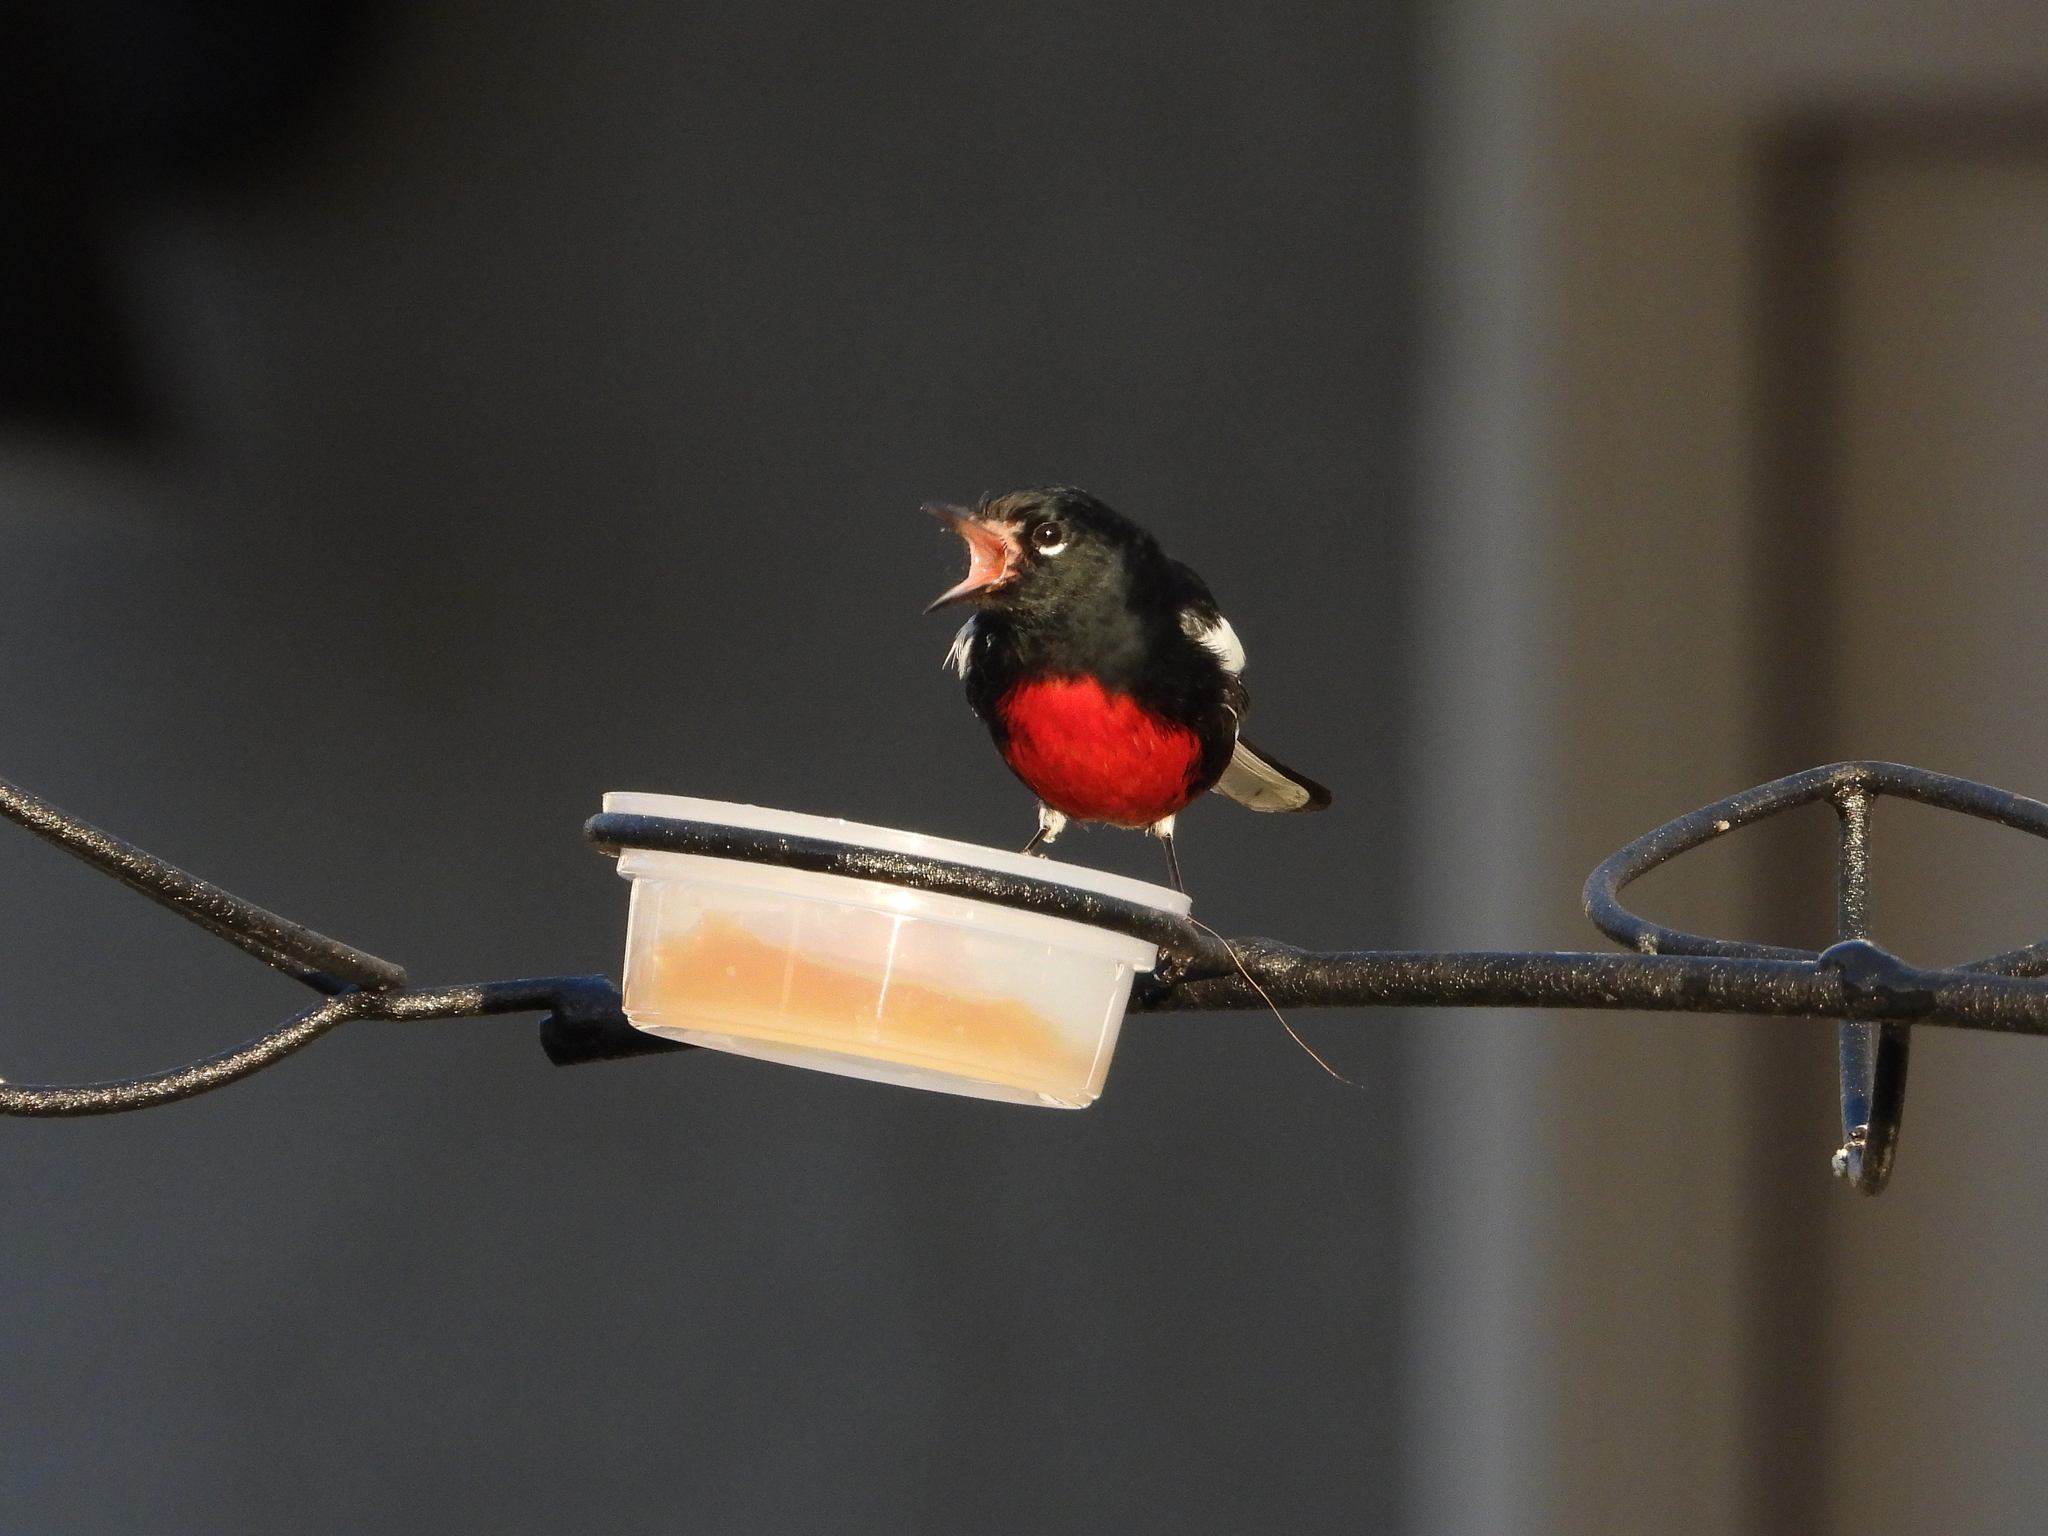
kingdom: Animalia
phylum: Chordata
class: Aves
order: Passeriformes
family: Parulidae
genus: Myioborus
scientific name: Myioborus pictus
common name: Painted whitestart
